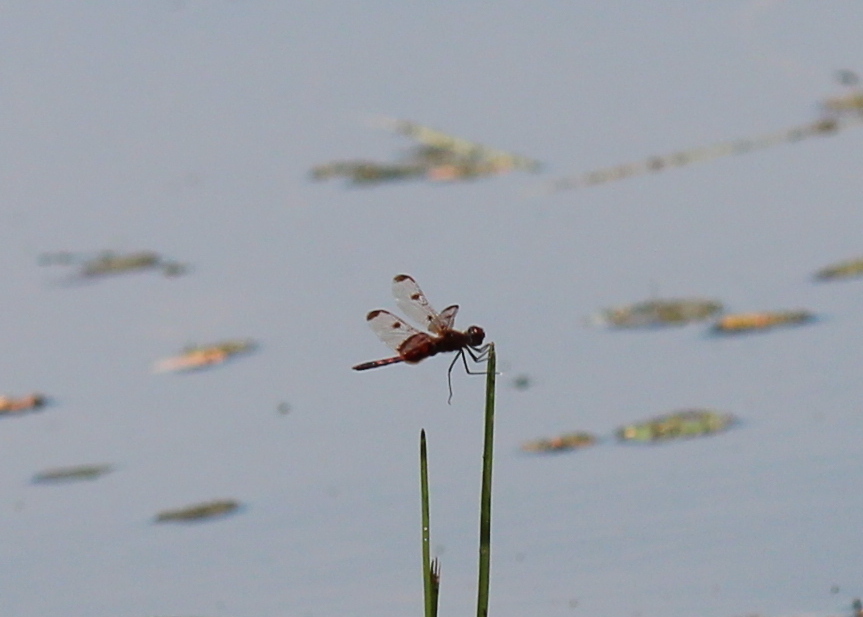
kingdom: Animalia
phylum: Arthropoda
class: Insecta
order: Odonata
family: Libellulidae
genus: Celithemis
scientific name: Celithemis elisa
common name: Calico pennant
